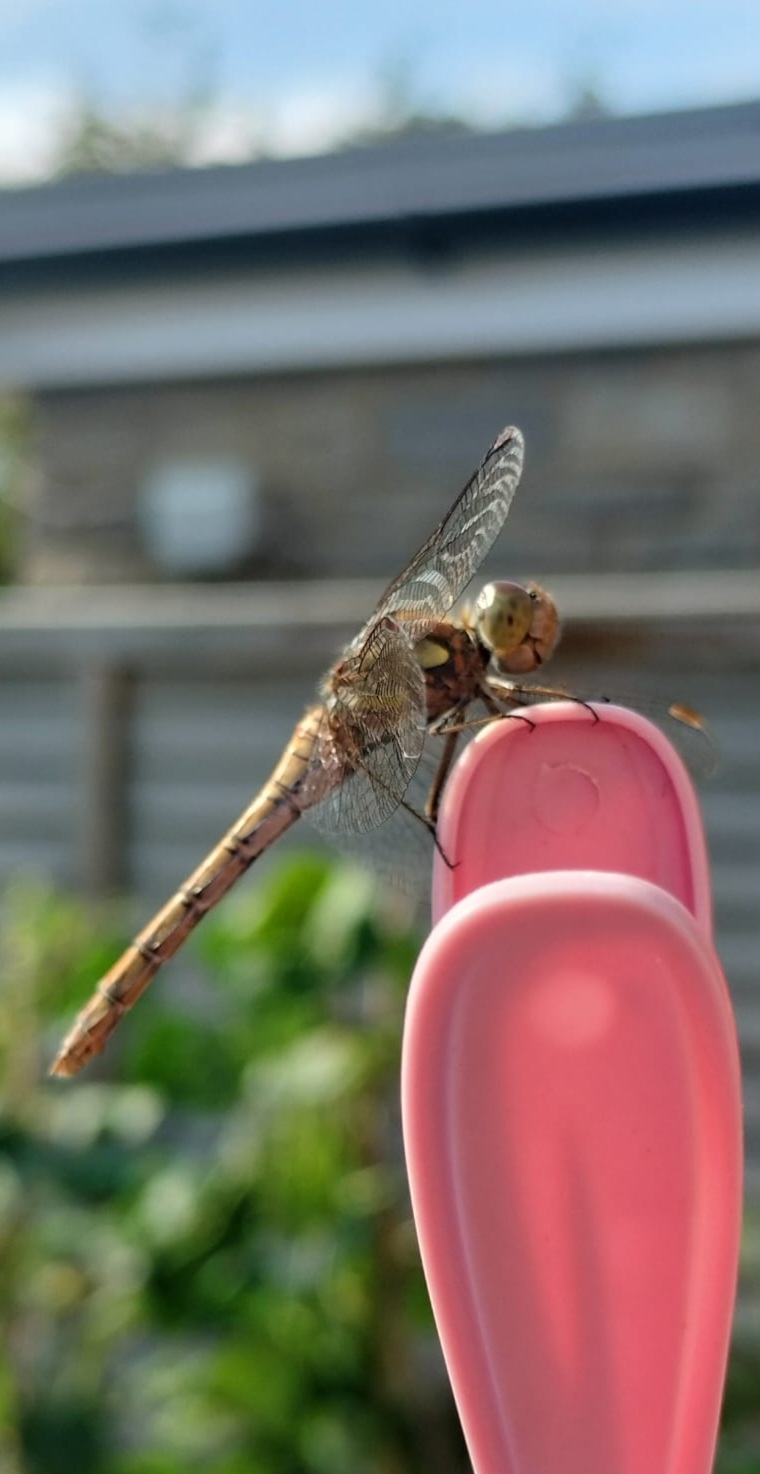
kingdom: Animalia
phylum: Arthropoda
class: Insecta
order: Odonata
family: Libellulidae
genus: Sympetrum
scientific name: Sympetrum striolatum
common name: Common darter
